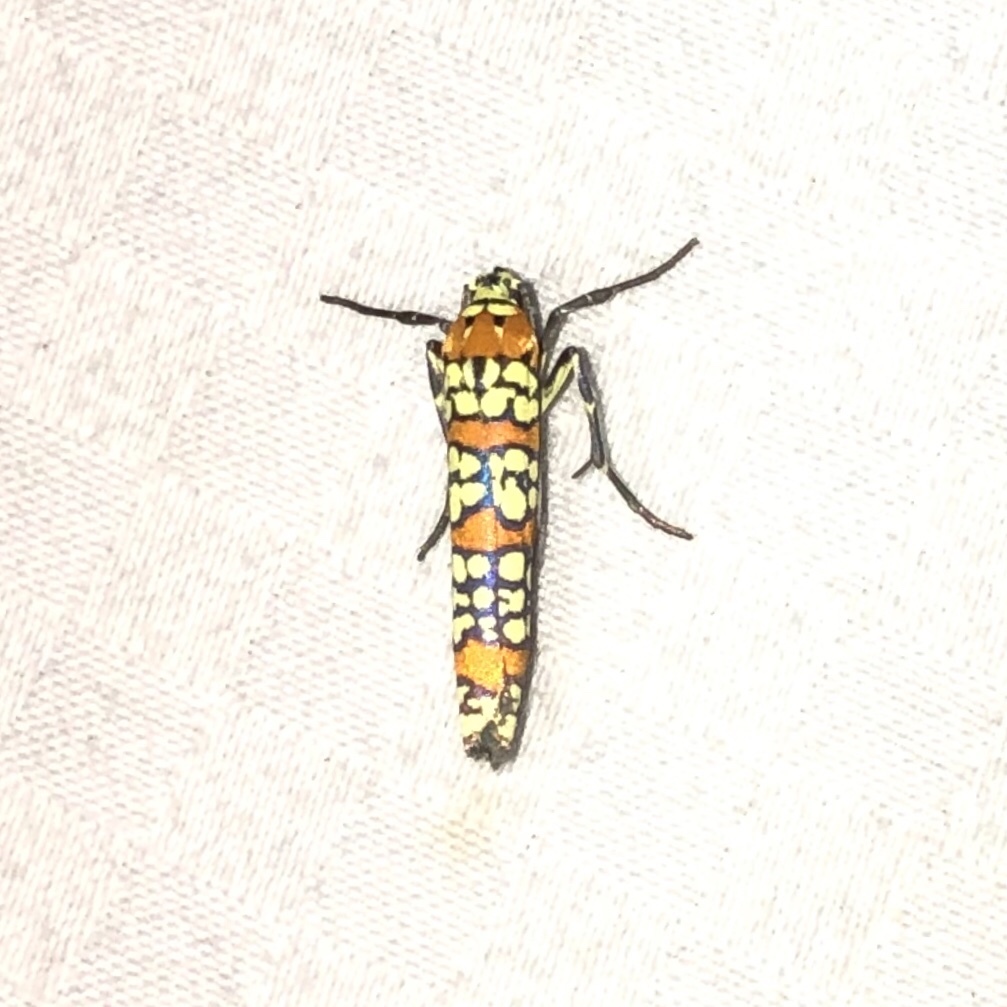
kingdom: Animalia
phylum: Arthropoda
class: Insecta
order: Lepidoptera
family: Attevidae
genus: Atteva
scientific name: Atteva punctella
